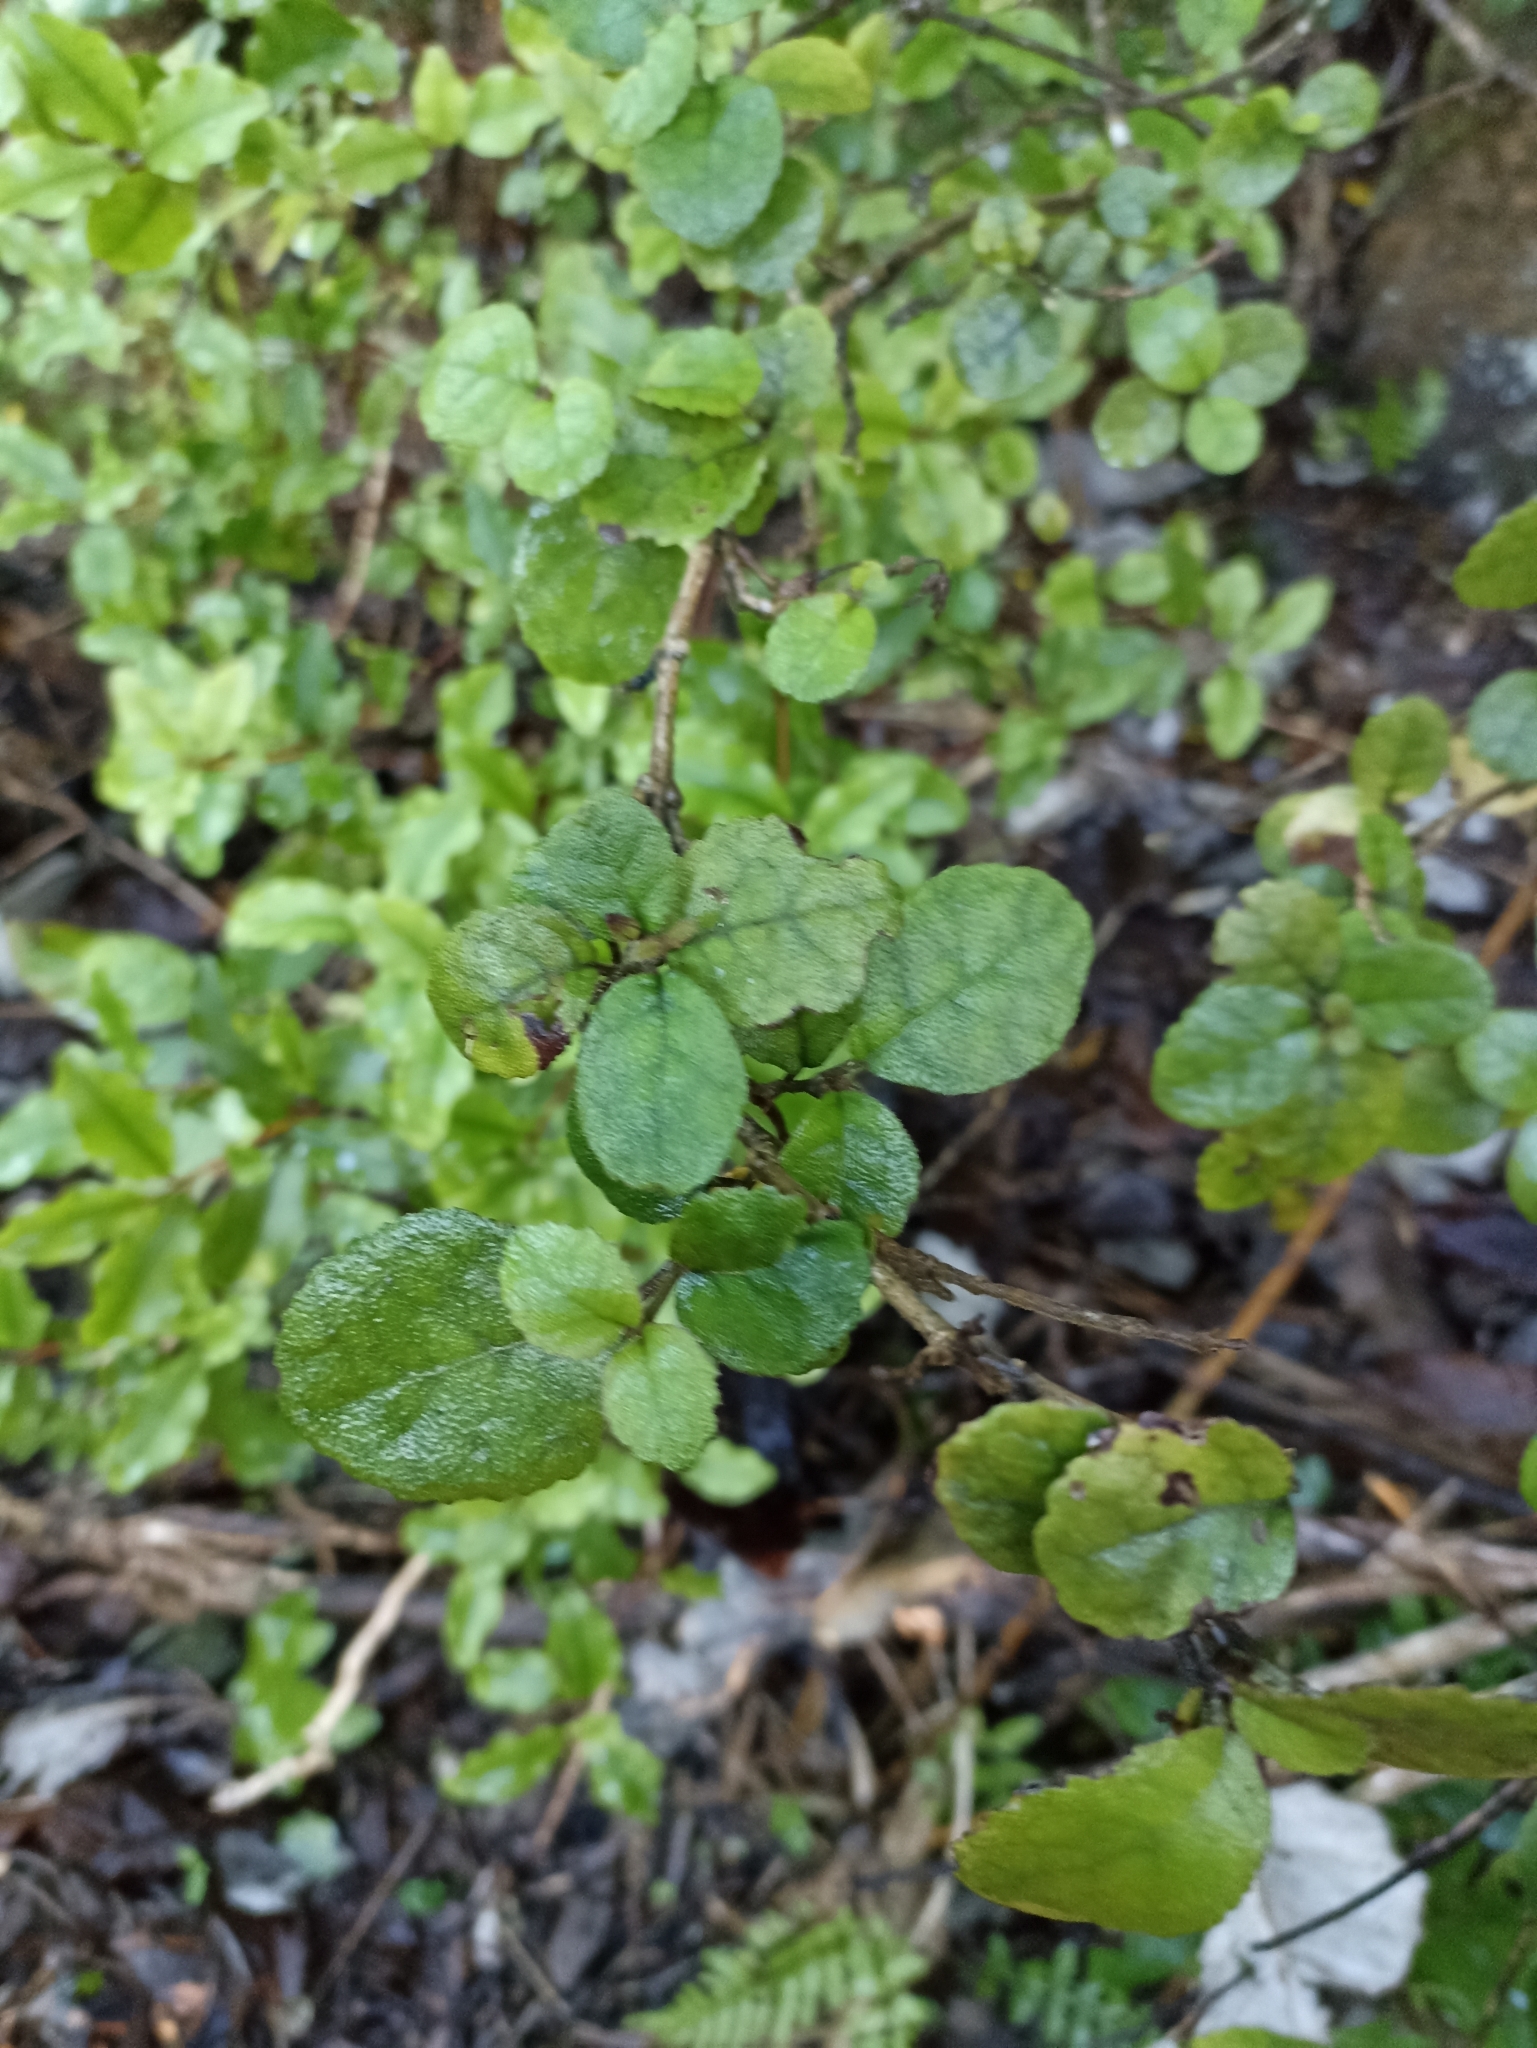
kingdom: Plantae
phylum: Tracheophyta
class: Magnoliopsida
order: Lamiales
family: Gesneriaceae
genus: Rhabdothamnus
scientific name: Rhabdothamnus solandri
